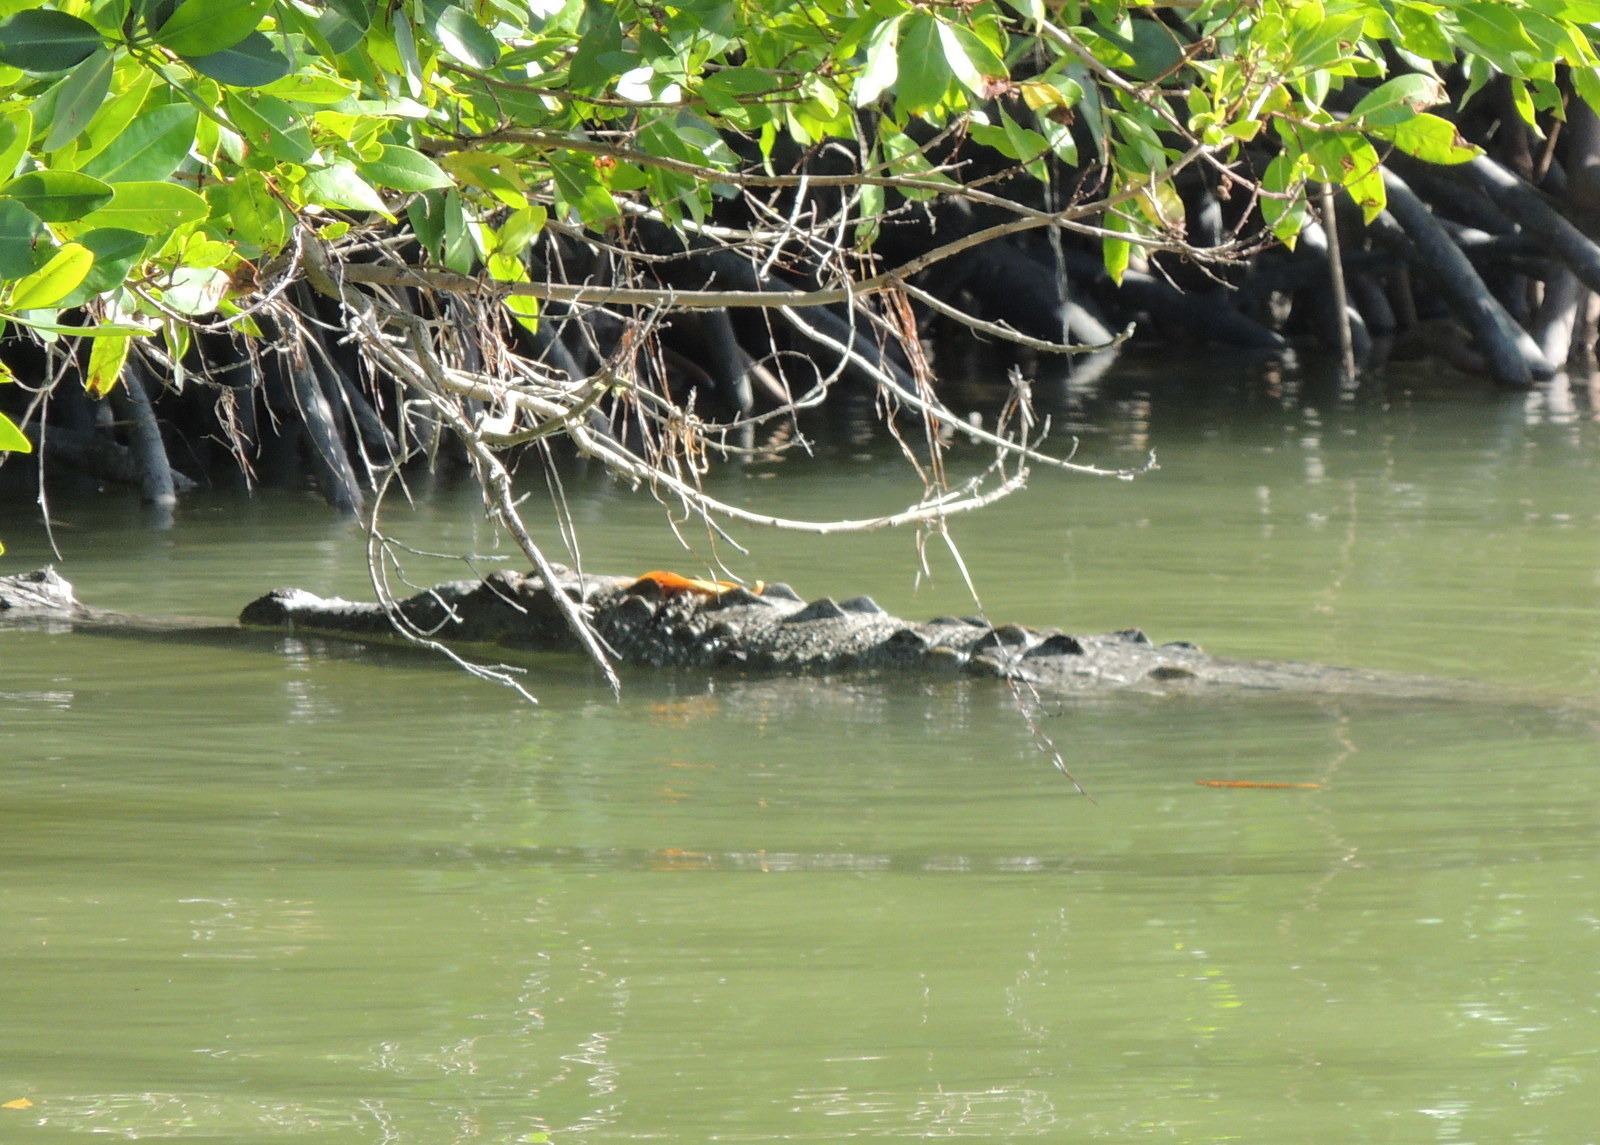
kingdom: Animalia
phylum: Chordata
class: Crocodylia
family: Crocodylidae
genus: Crocodylus
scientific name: Crocodylus acutus
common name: American crocodile
